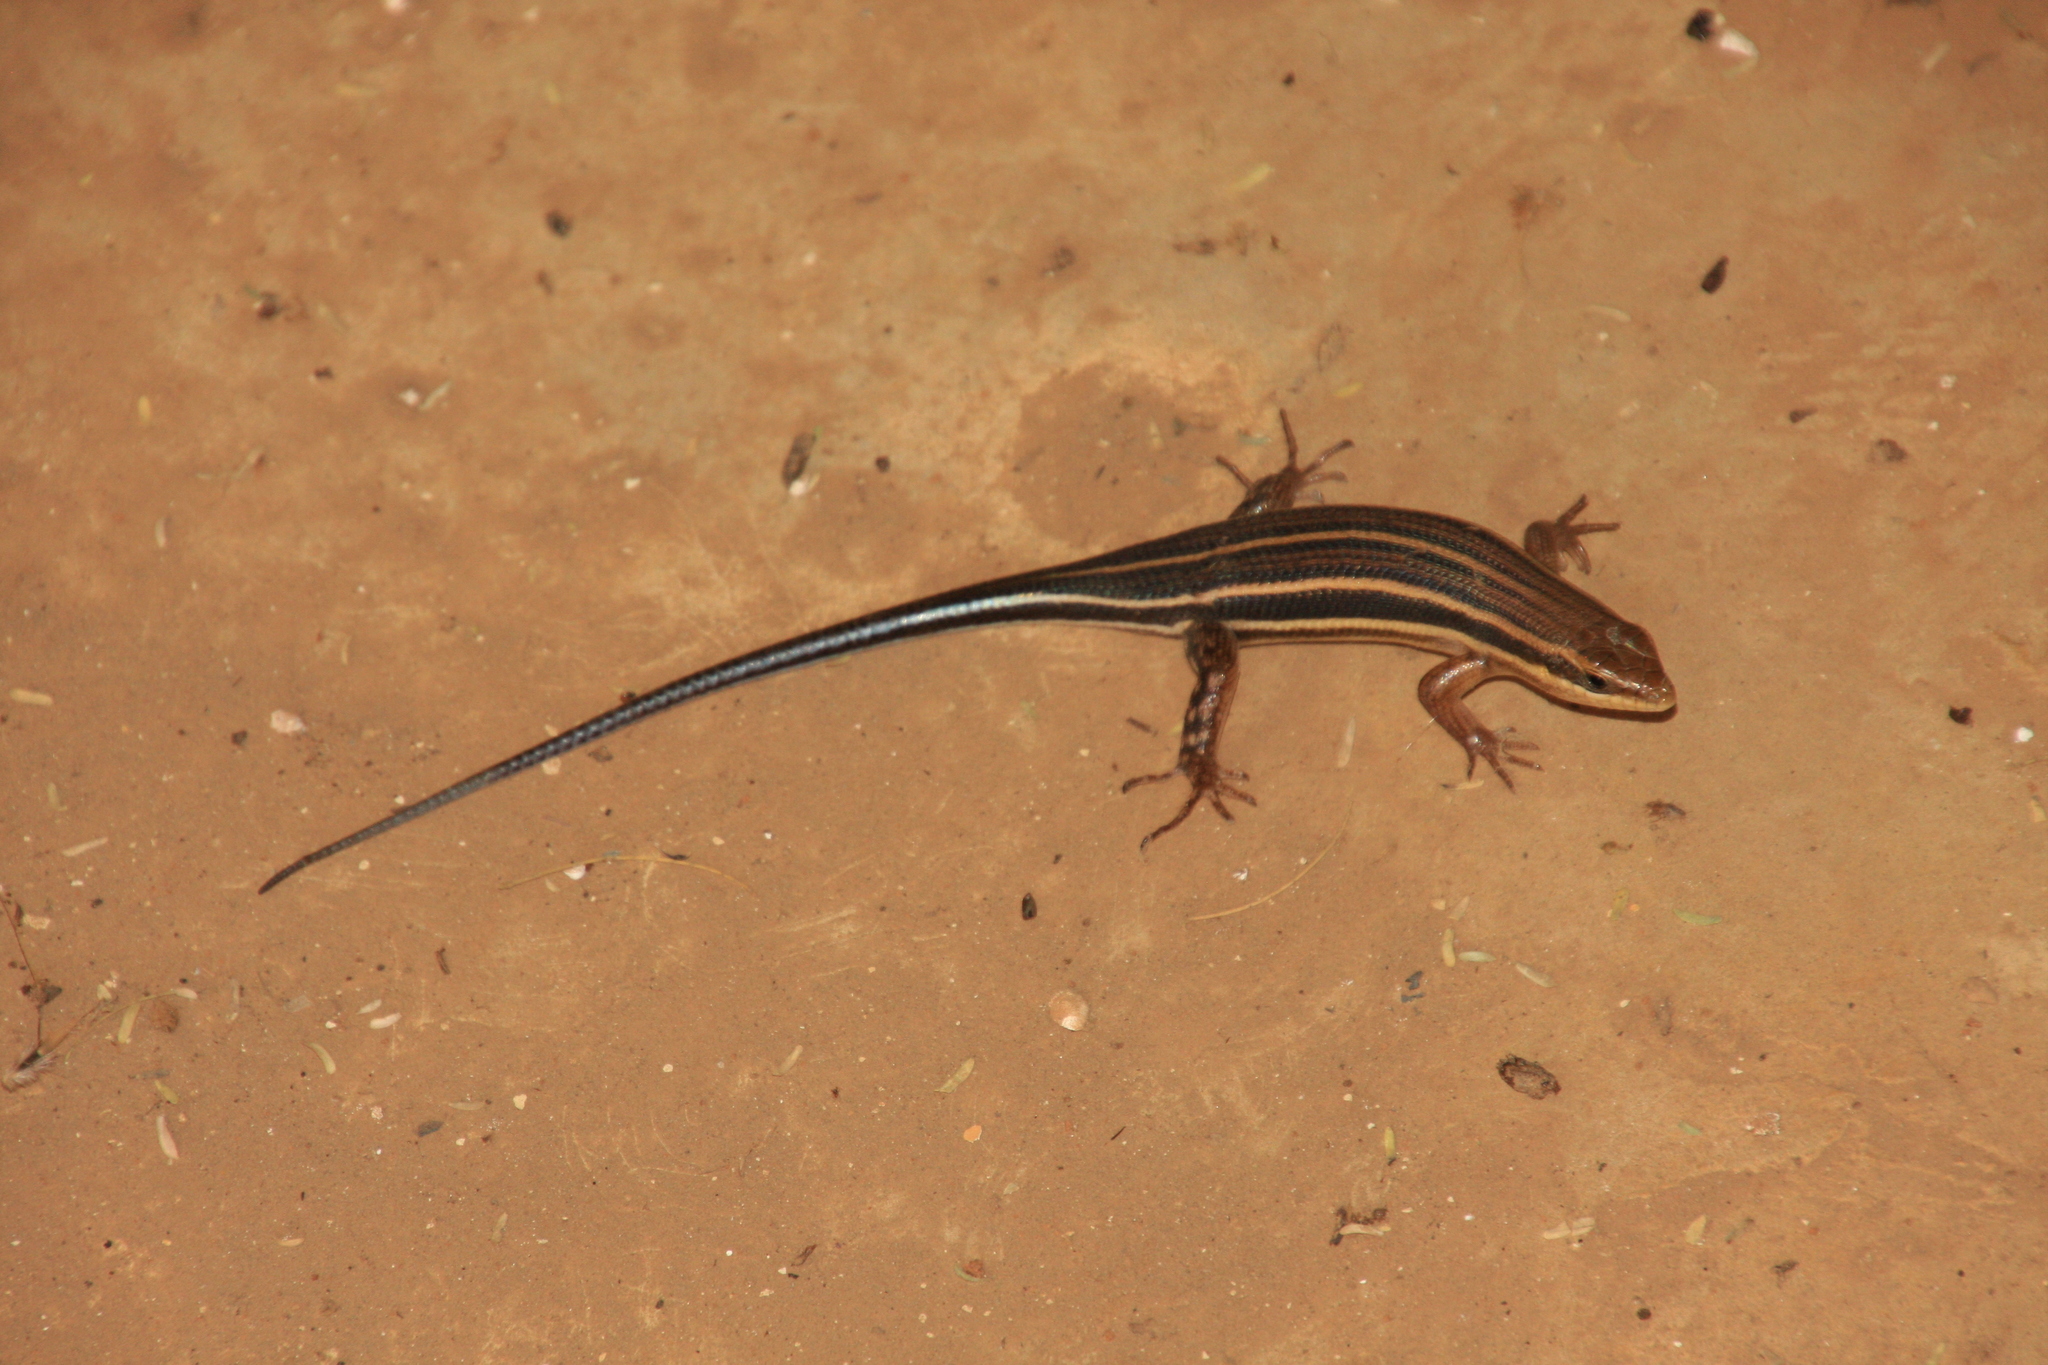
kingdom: Animalia
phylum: Chordata
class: Squamata
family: Scincidae
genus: Trachylepis
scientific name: Trachylepis quinquetaeniata
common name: African five-lined skink
